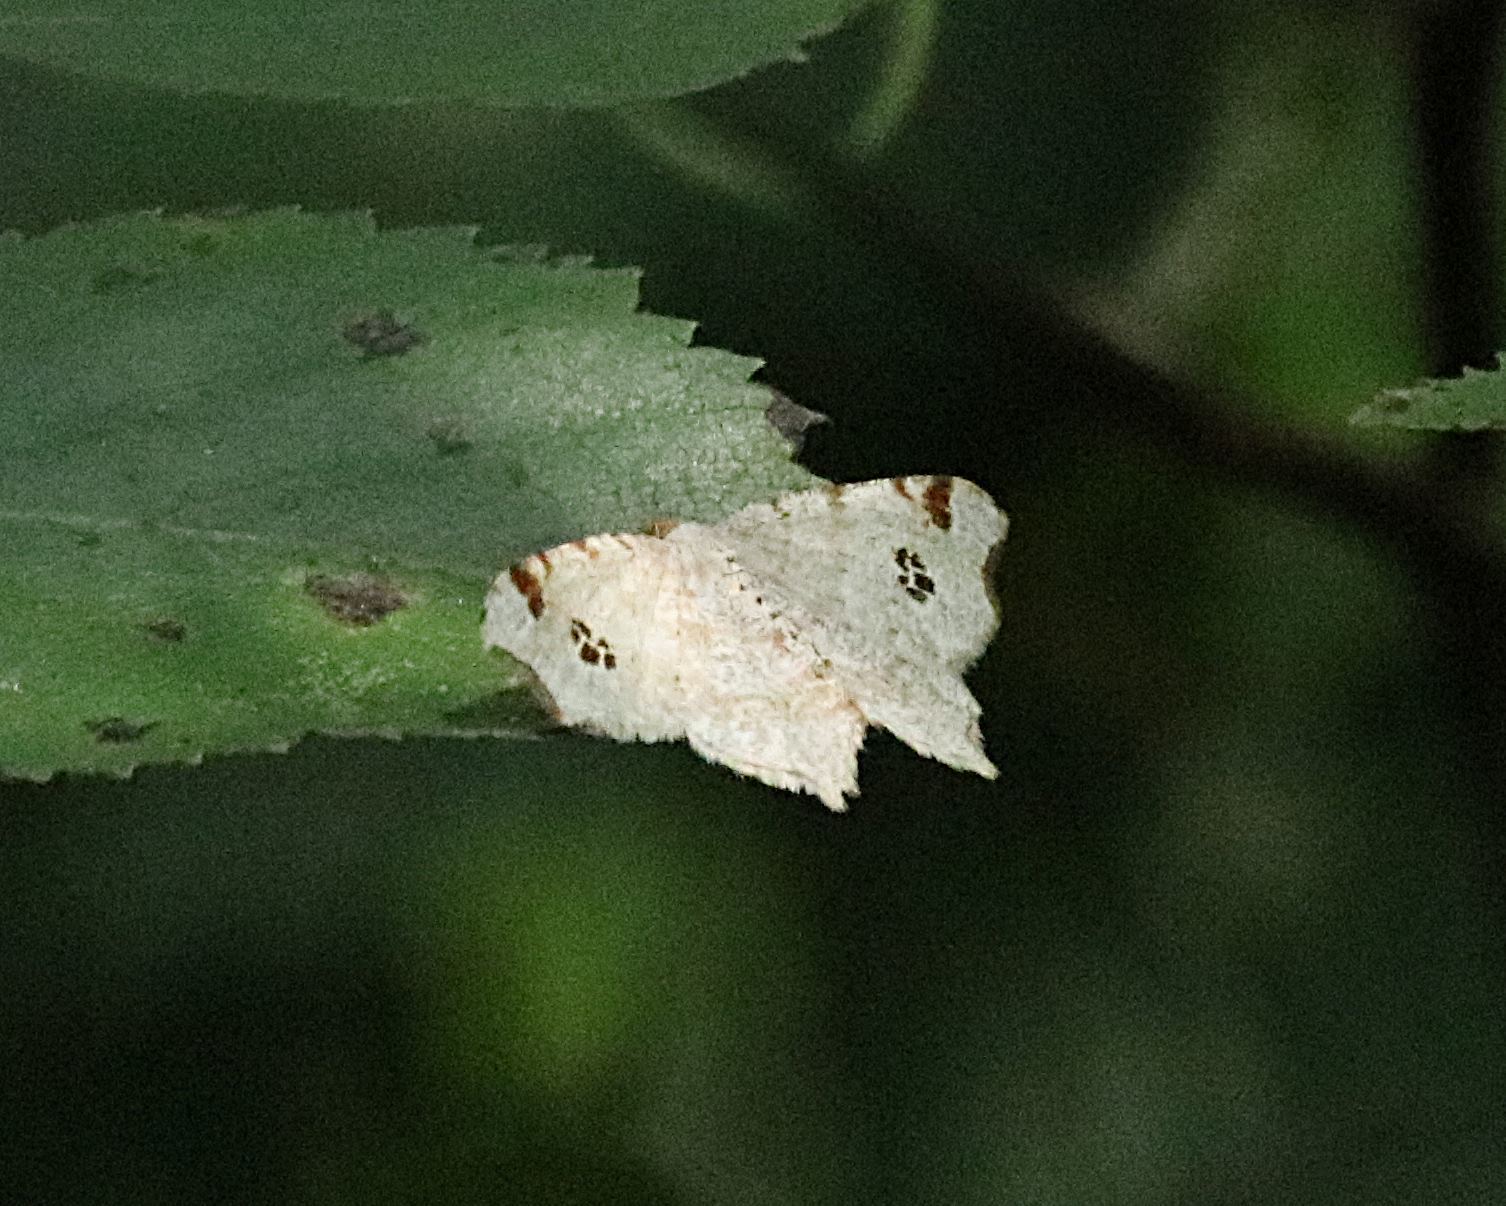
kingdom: Animalia
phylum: Arthropoda
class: Insecta
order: Lepidoptera
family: Geometridae
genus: Macaria
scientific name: Macaria notata
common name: Peacock moth
